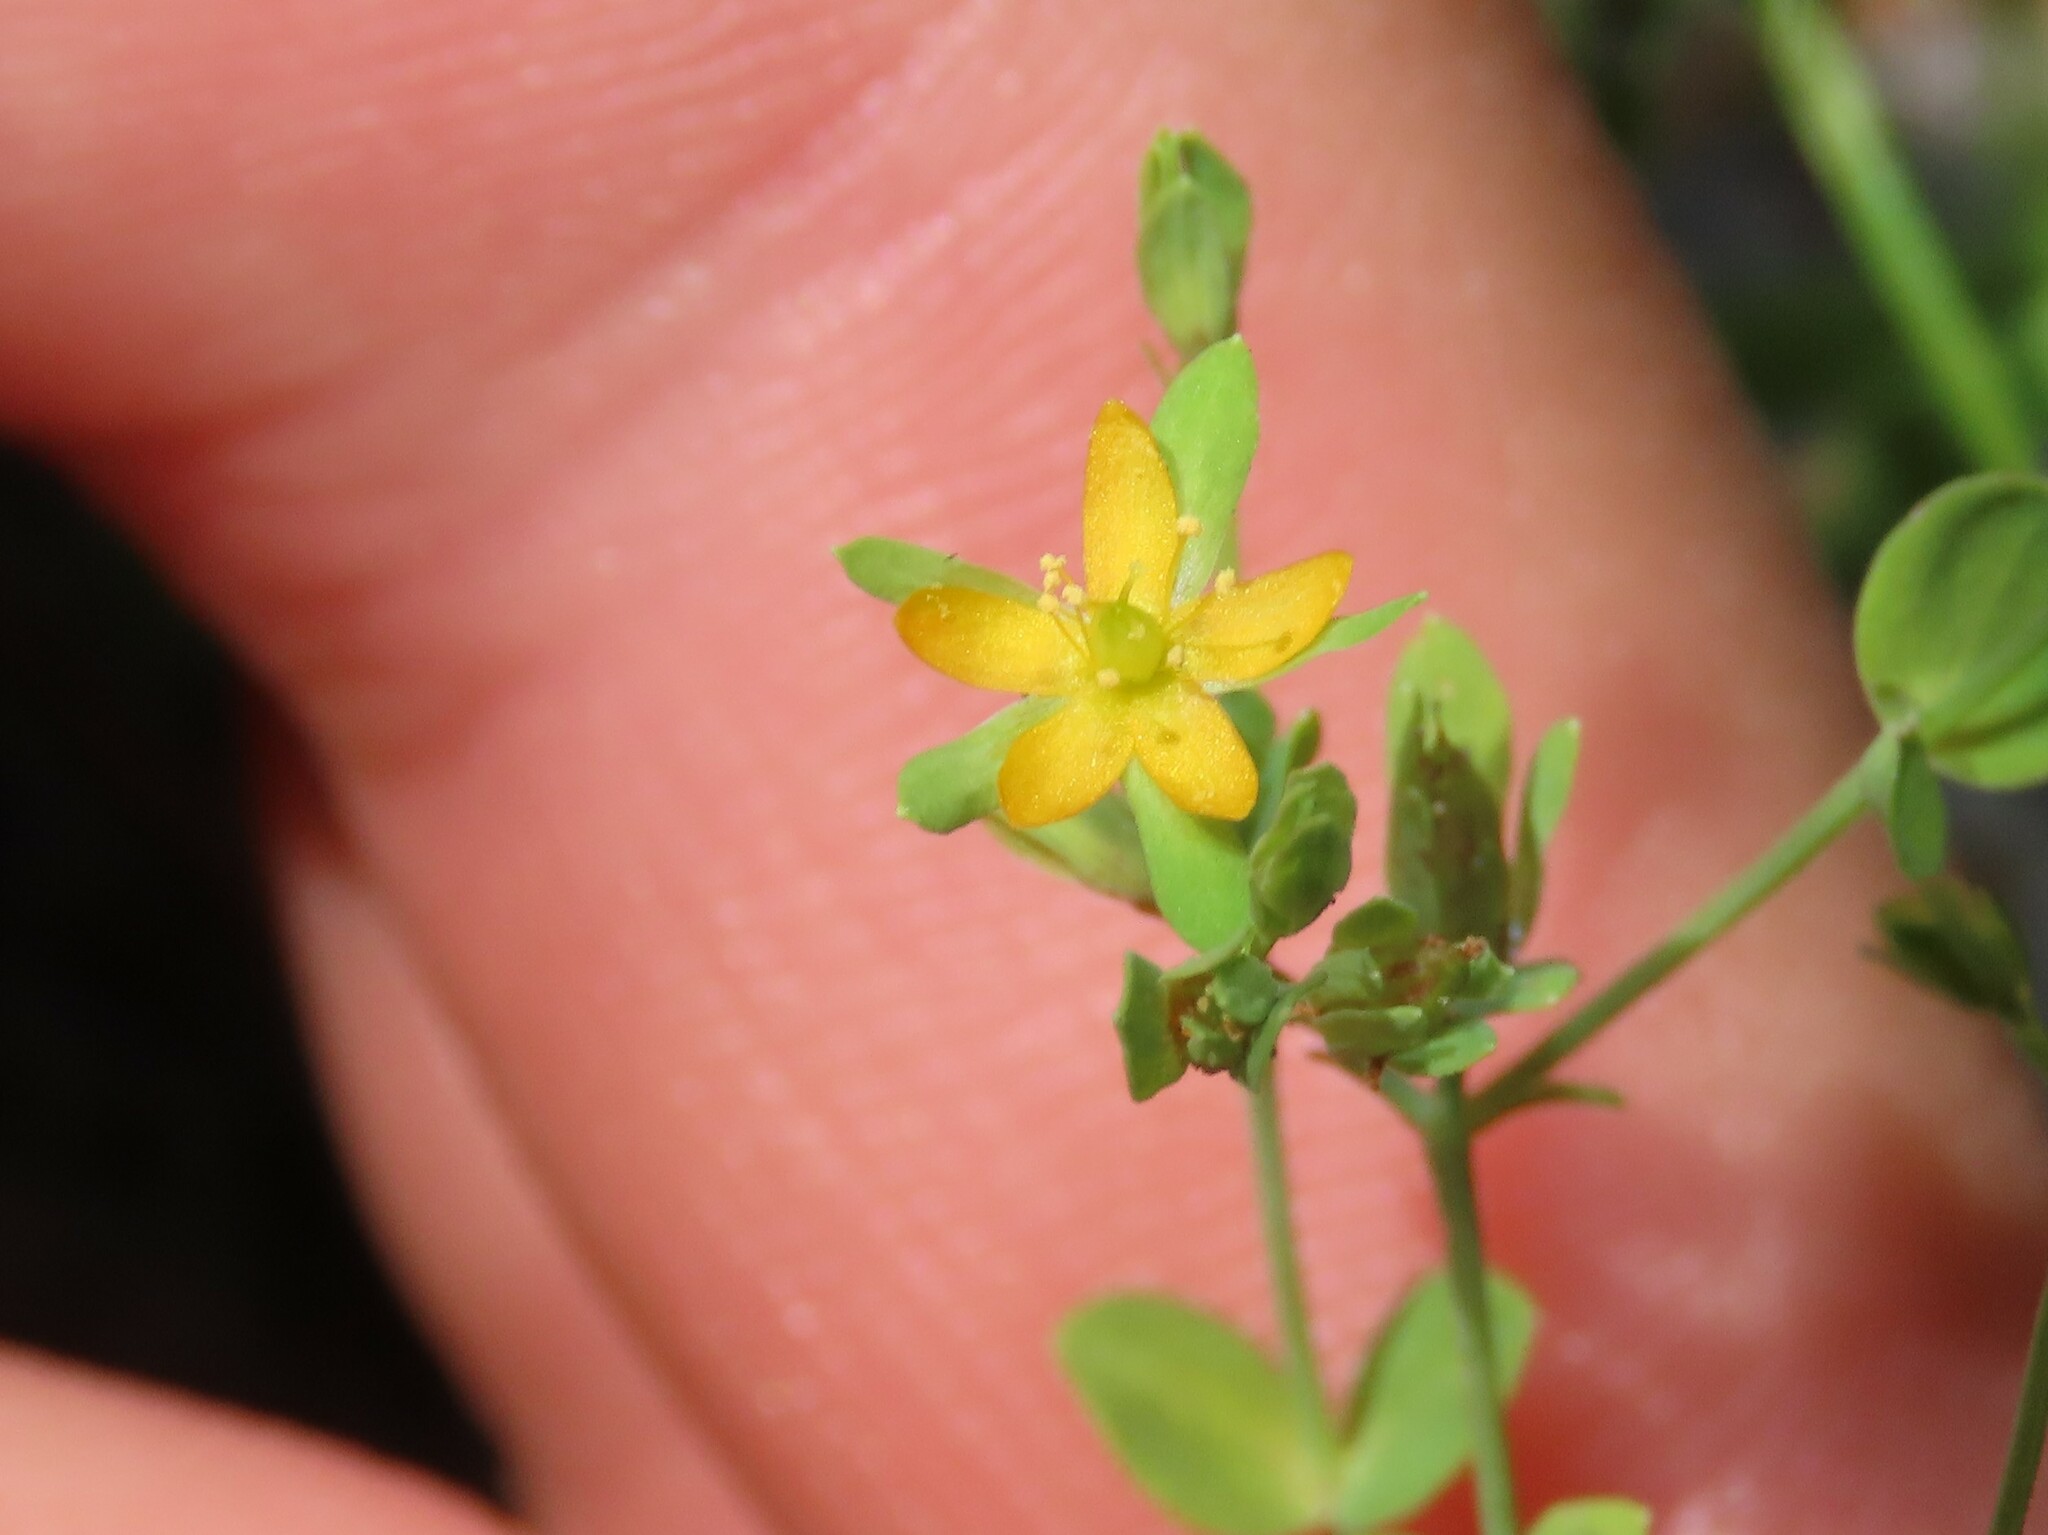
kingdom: Plantae
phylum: Tracheophyta
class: Magnoliopsida
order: Malpighiales
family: Hypericaceae
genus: Hypericum
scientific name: Hypericum mutilum
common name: Dwarf st. john's-wort
